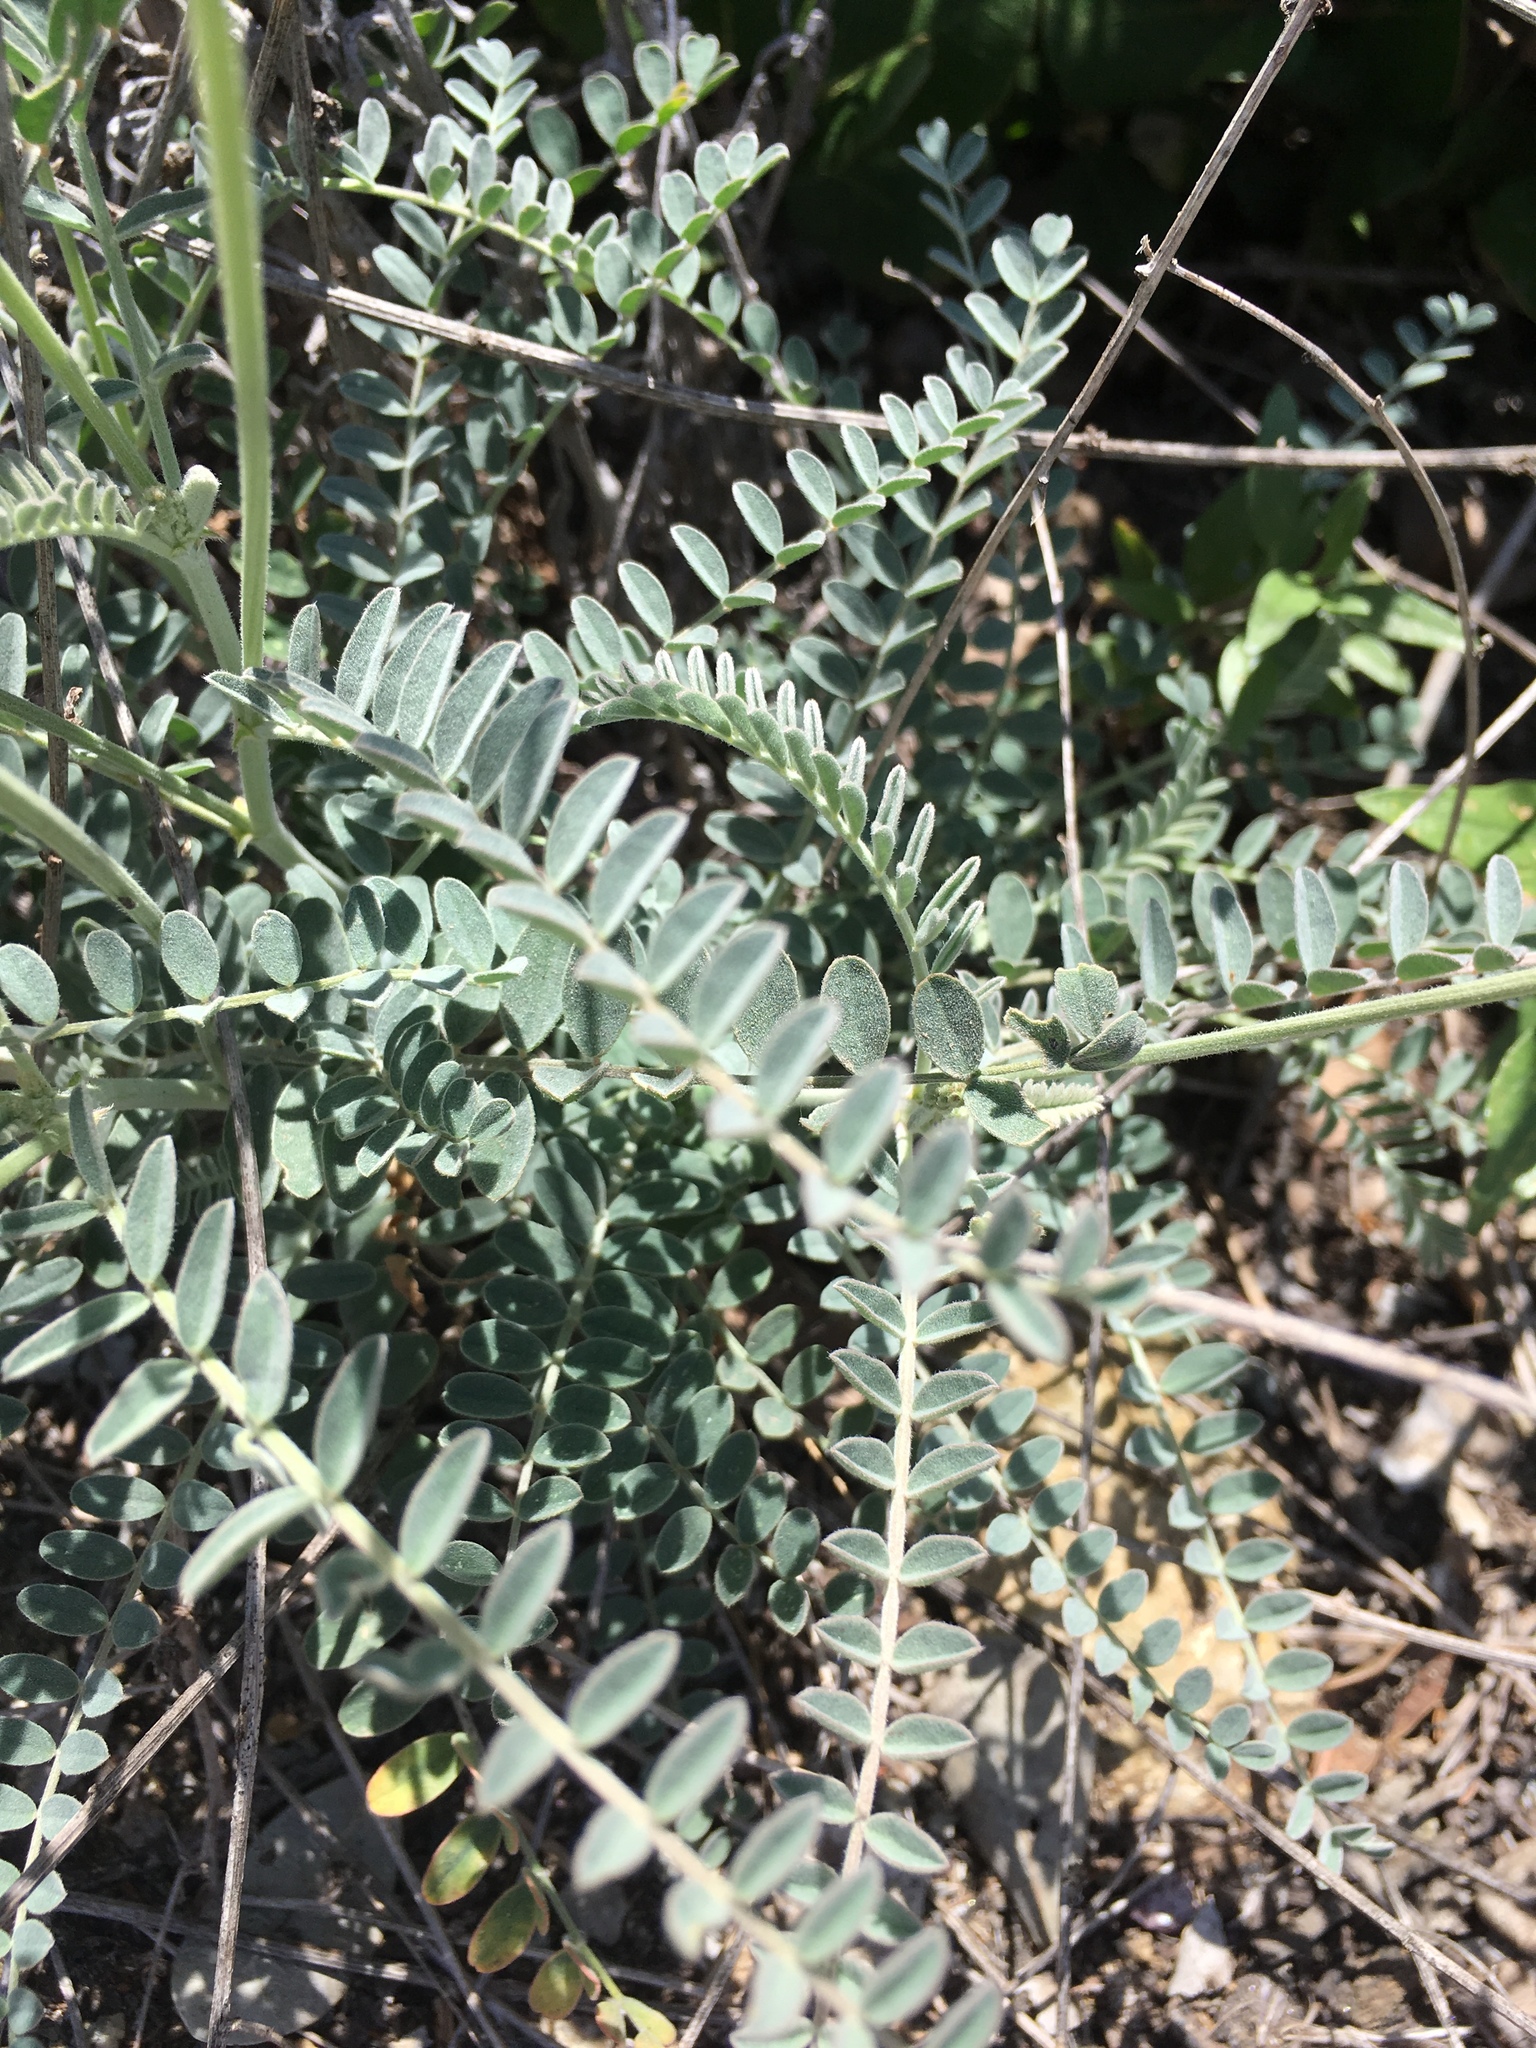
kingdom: Plantae
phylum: Tracheophyta
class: Magnoliopsida
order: Fabales
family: Fabaceae
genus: Astragalus
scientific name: Astragalus trichopodus
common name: Santa barbara milk-vetch
